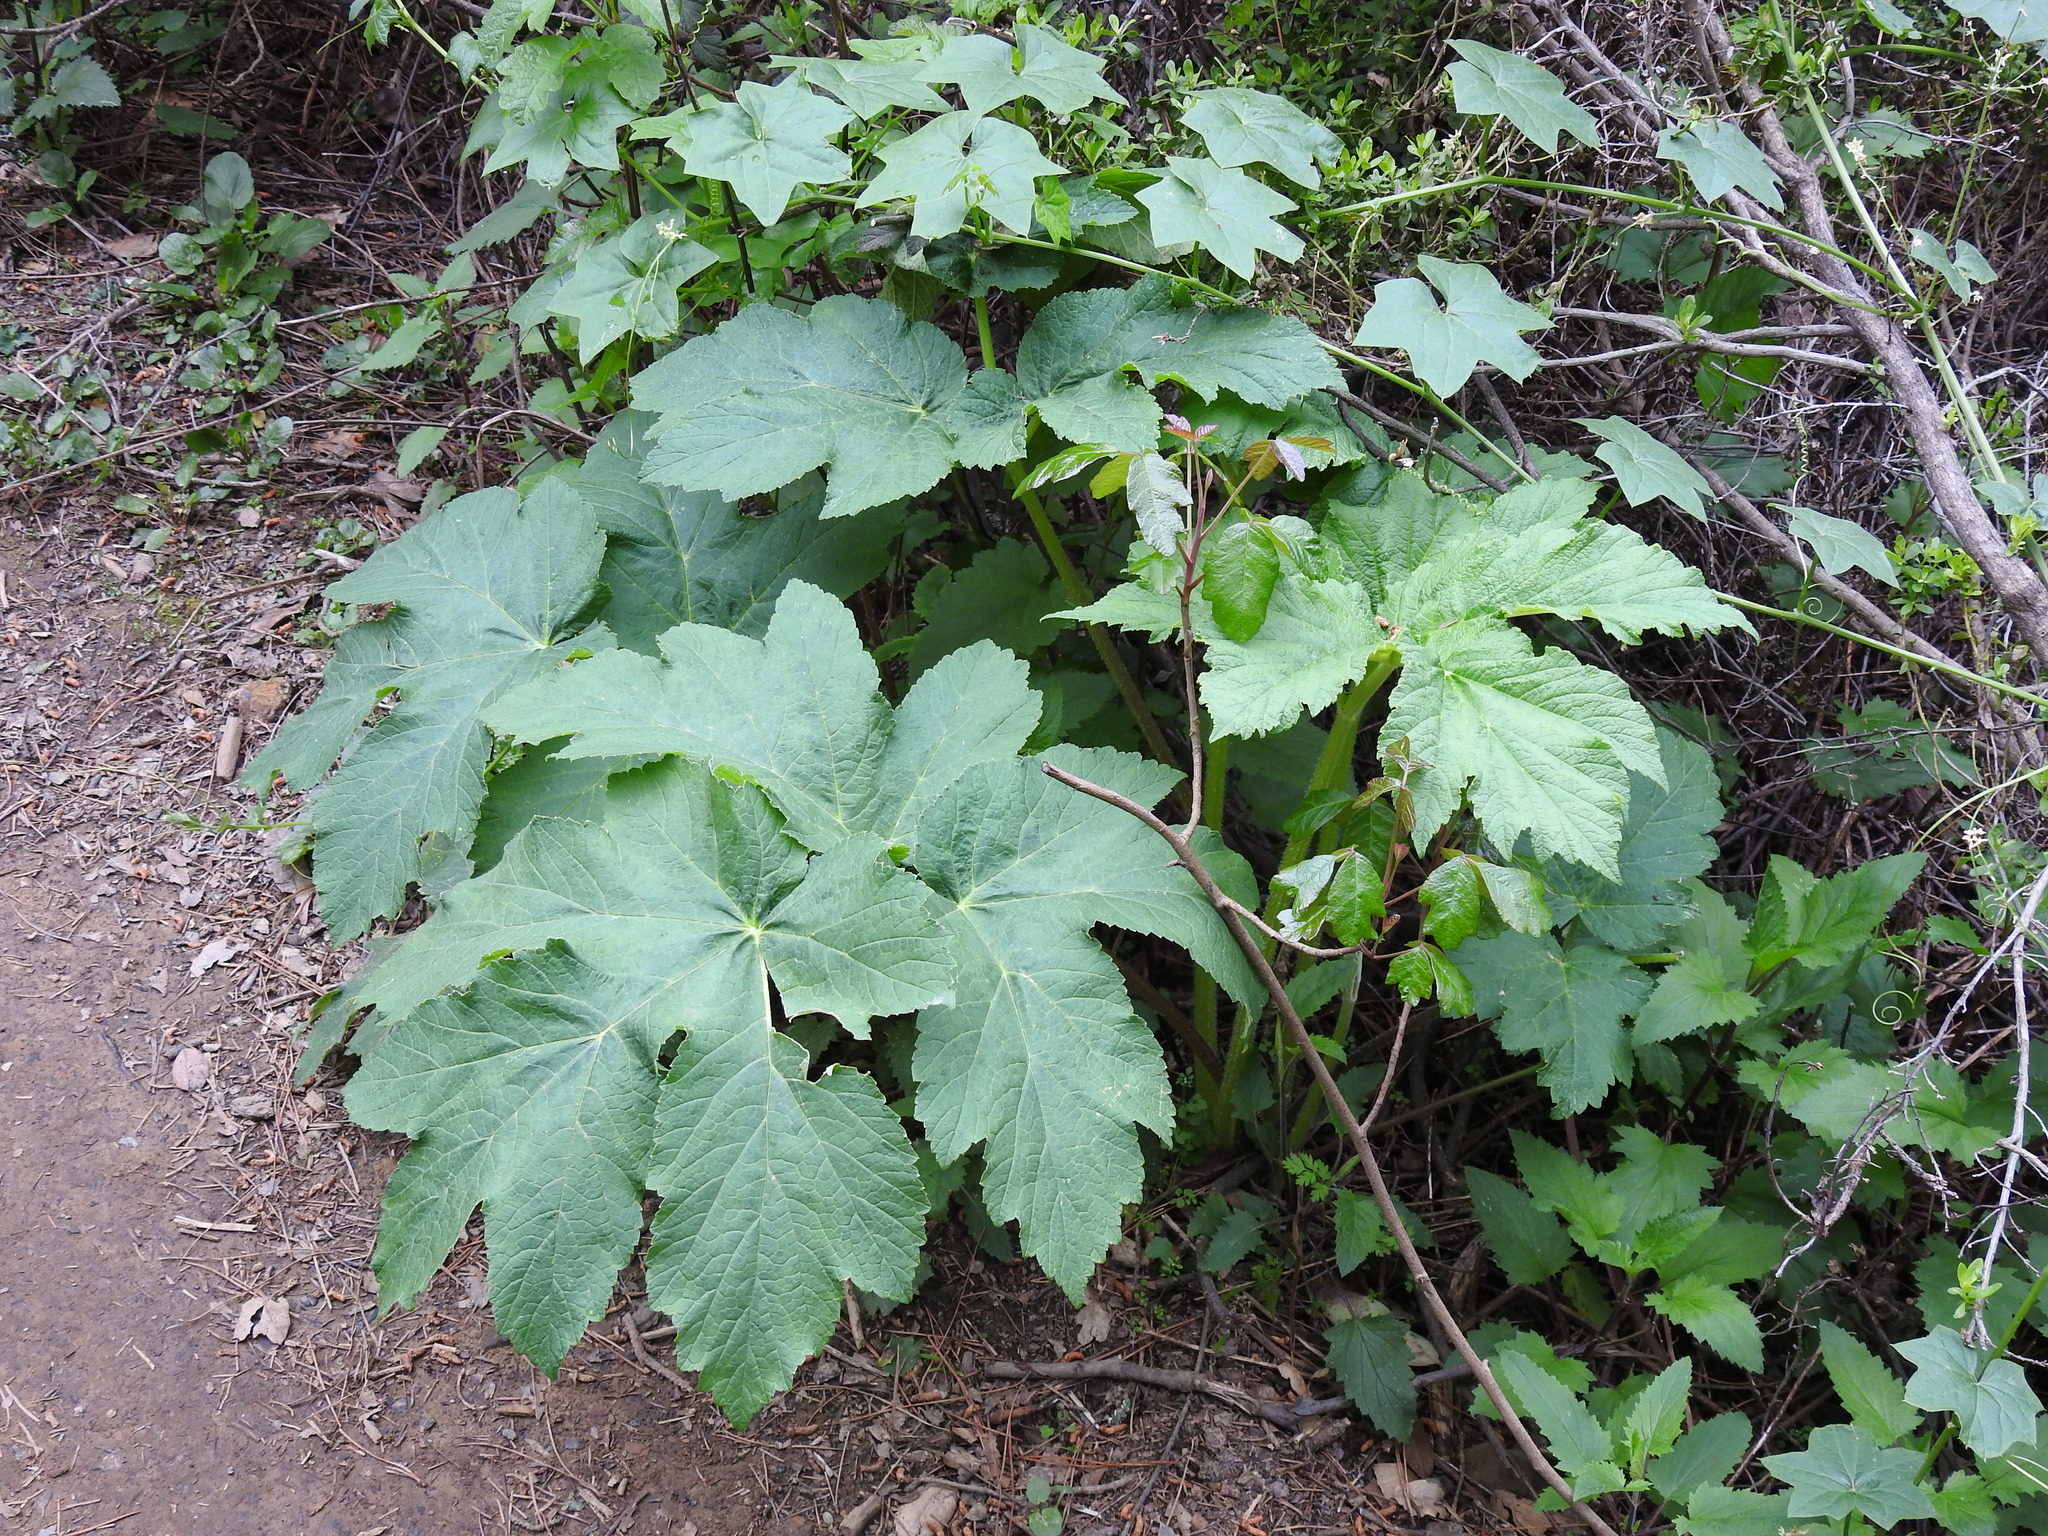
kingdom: Plantae
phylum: Tracheophyta
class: Magnoliopsida
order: Apiales
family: Apiaceae
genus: Heracleum
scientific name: Heracleum maximum
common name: American cow parsnip
